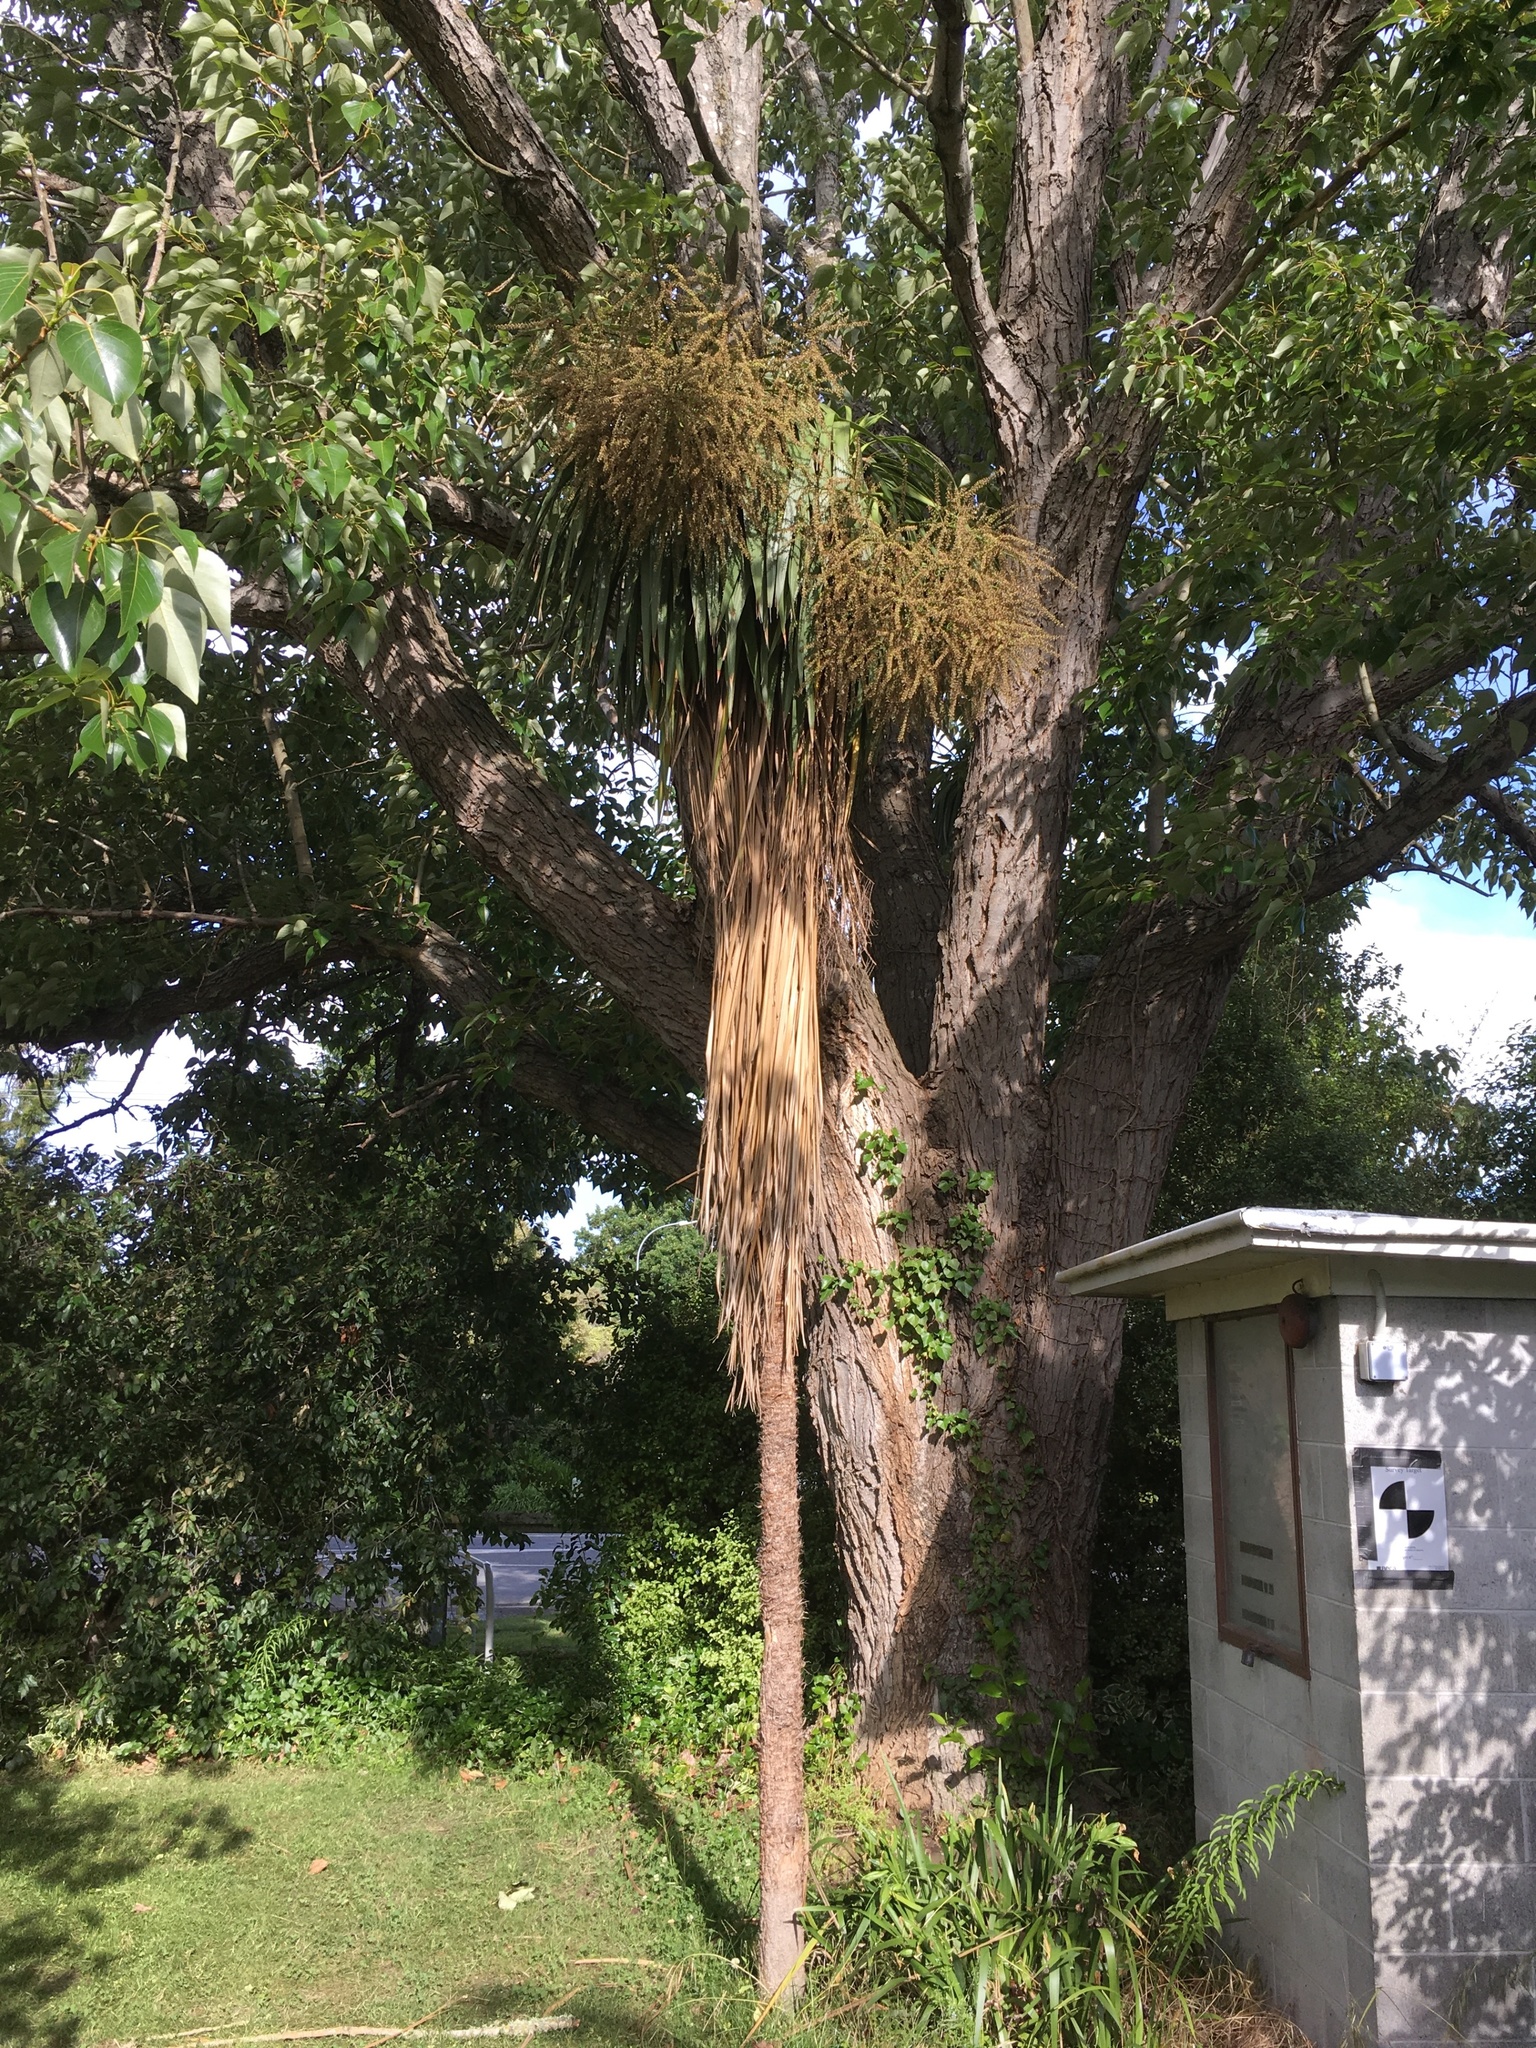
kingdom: Plantae
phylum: Tracheophyta
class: Liliopsida
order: Asparagales
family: Asparagaceae
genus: Cordyline
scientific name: Cordyline australis
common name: Cabbage-palm
